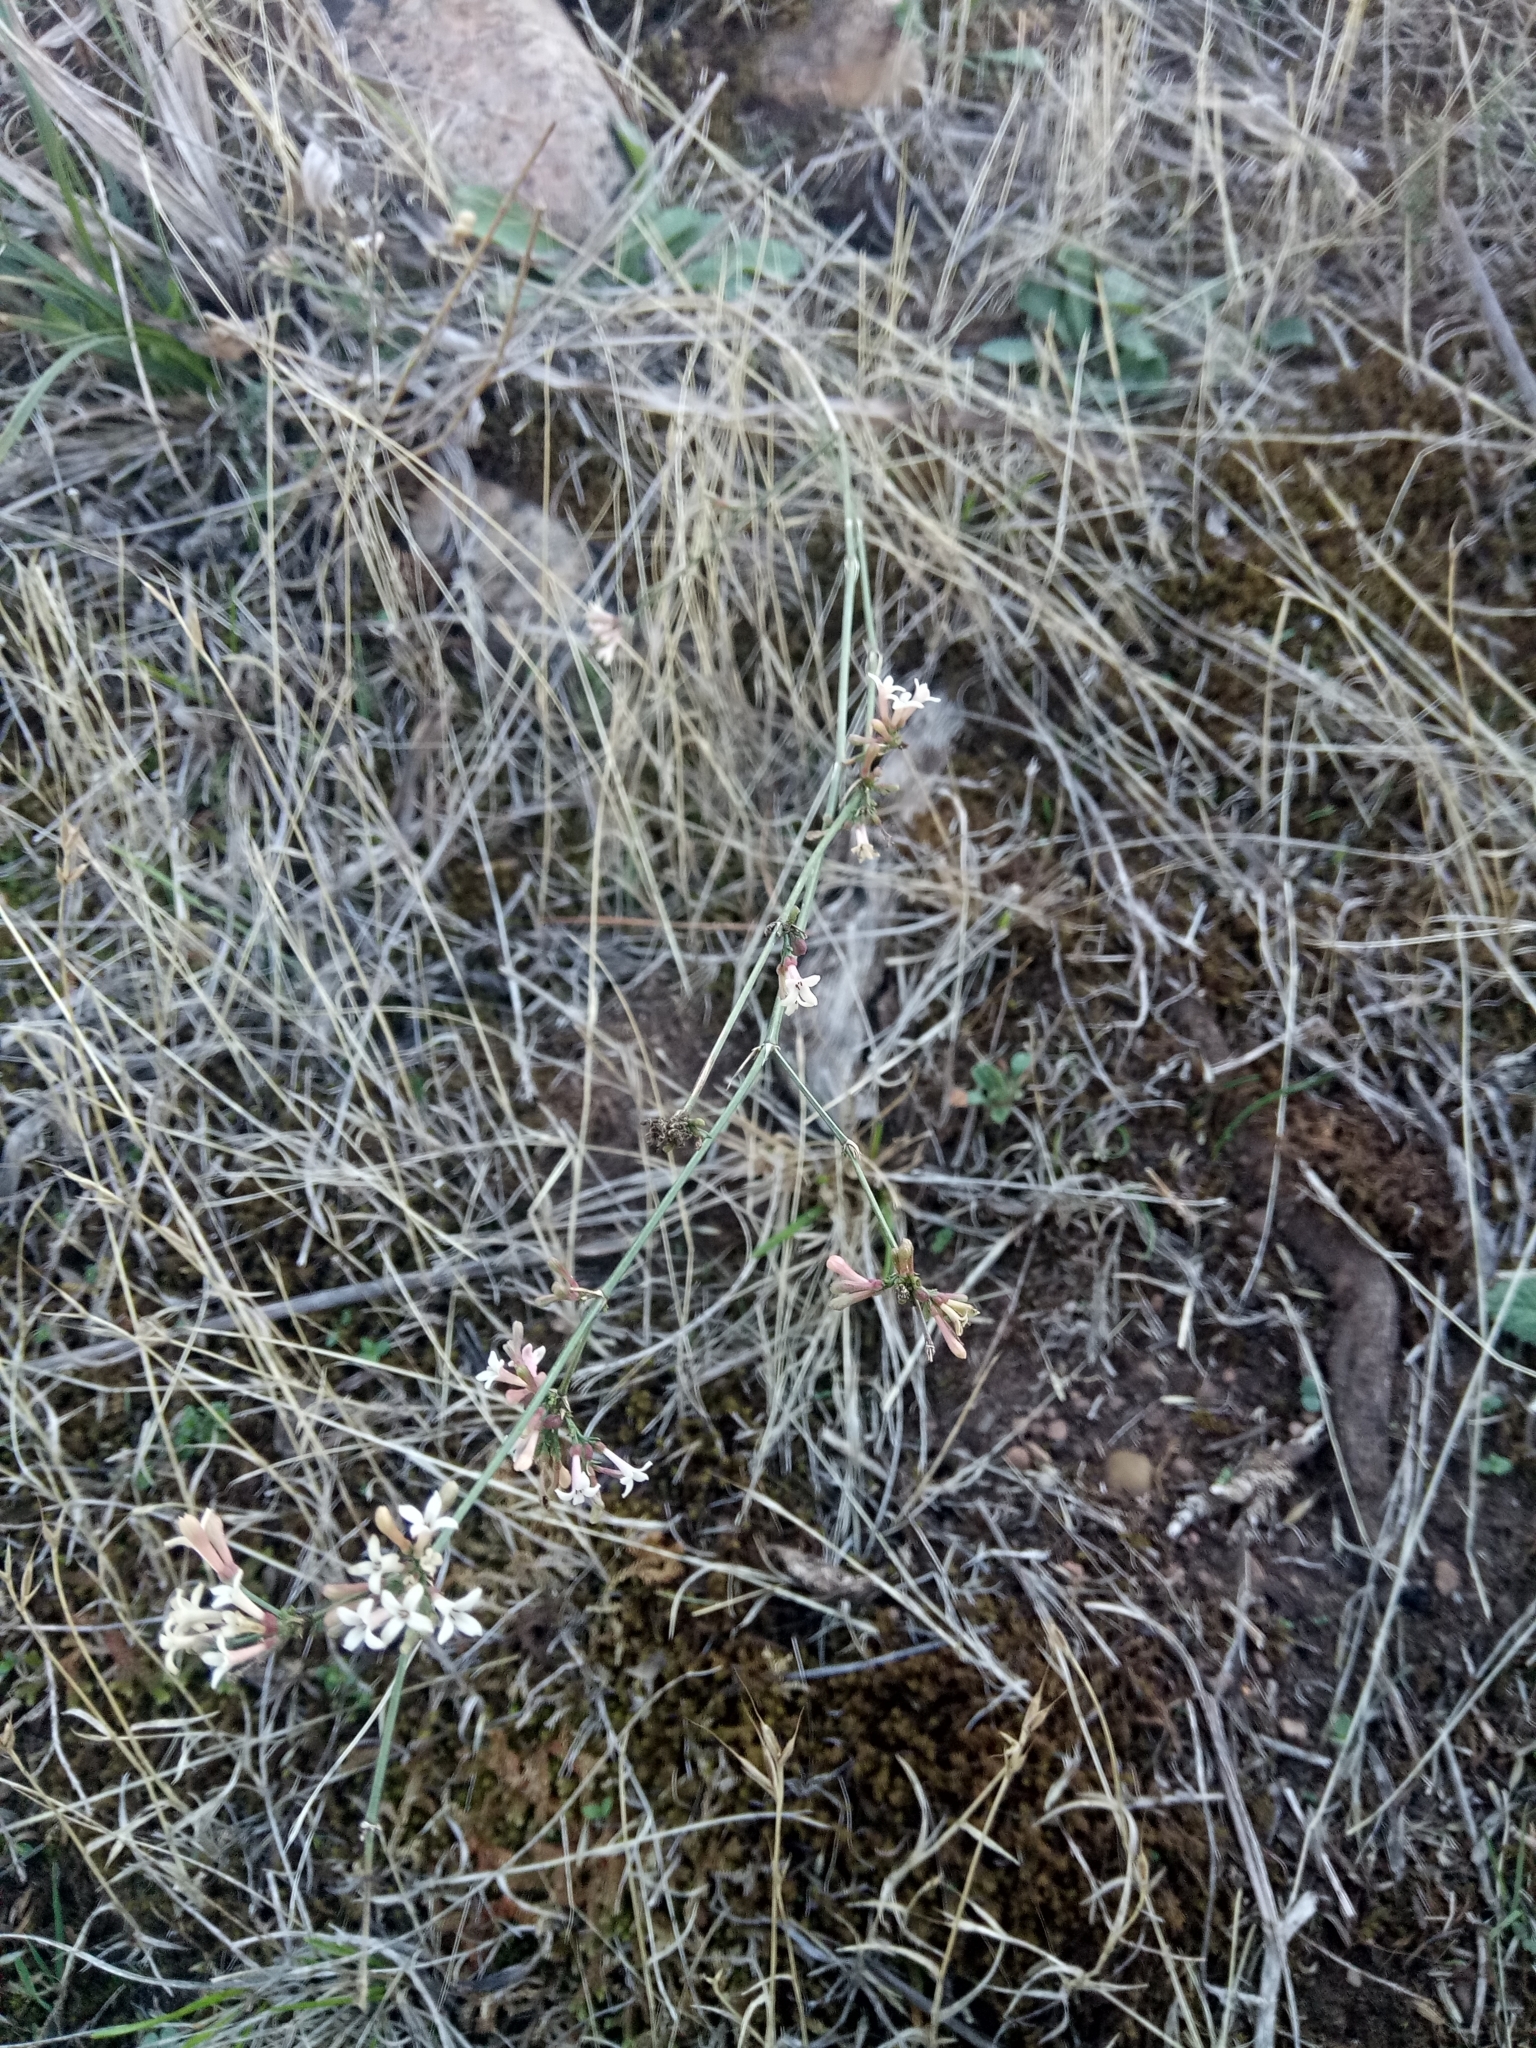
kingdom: Plantae
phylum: Tracheophyta
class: Magnoliopsida
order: Gentianales
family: Rubiaceae
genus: Cynanchica
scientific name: Cynanchica aristata
